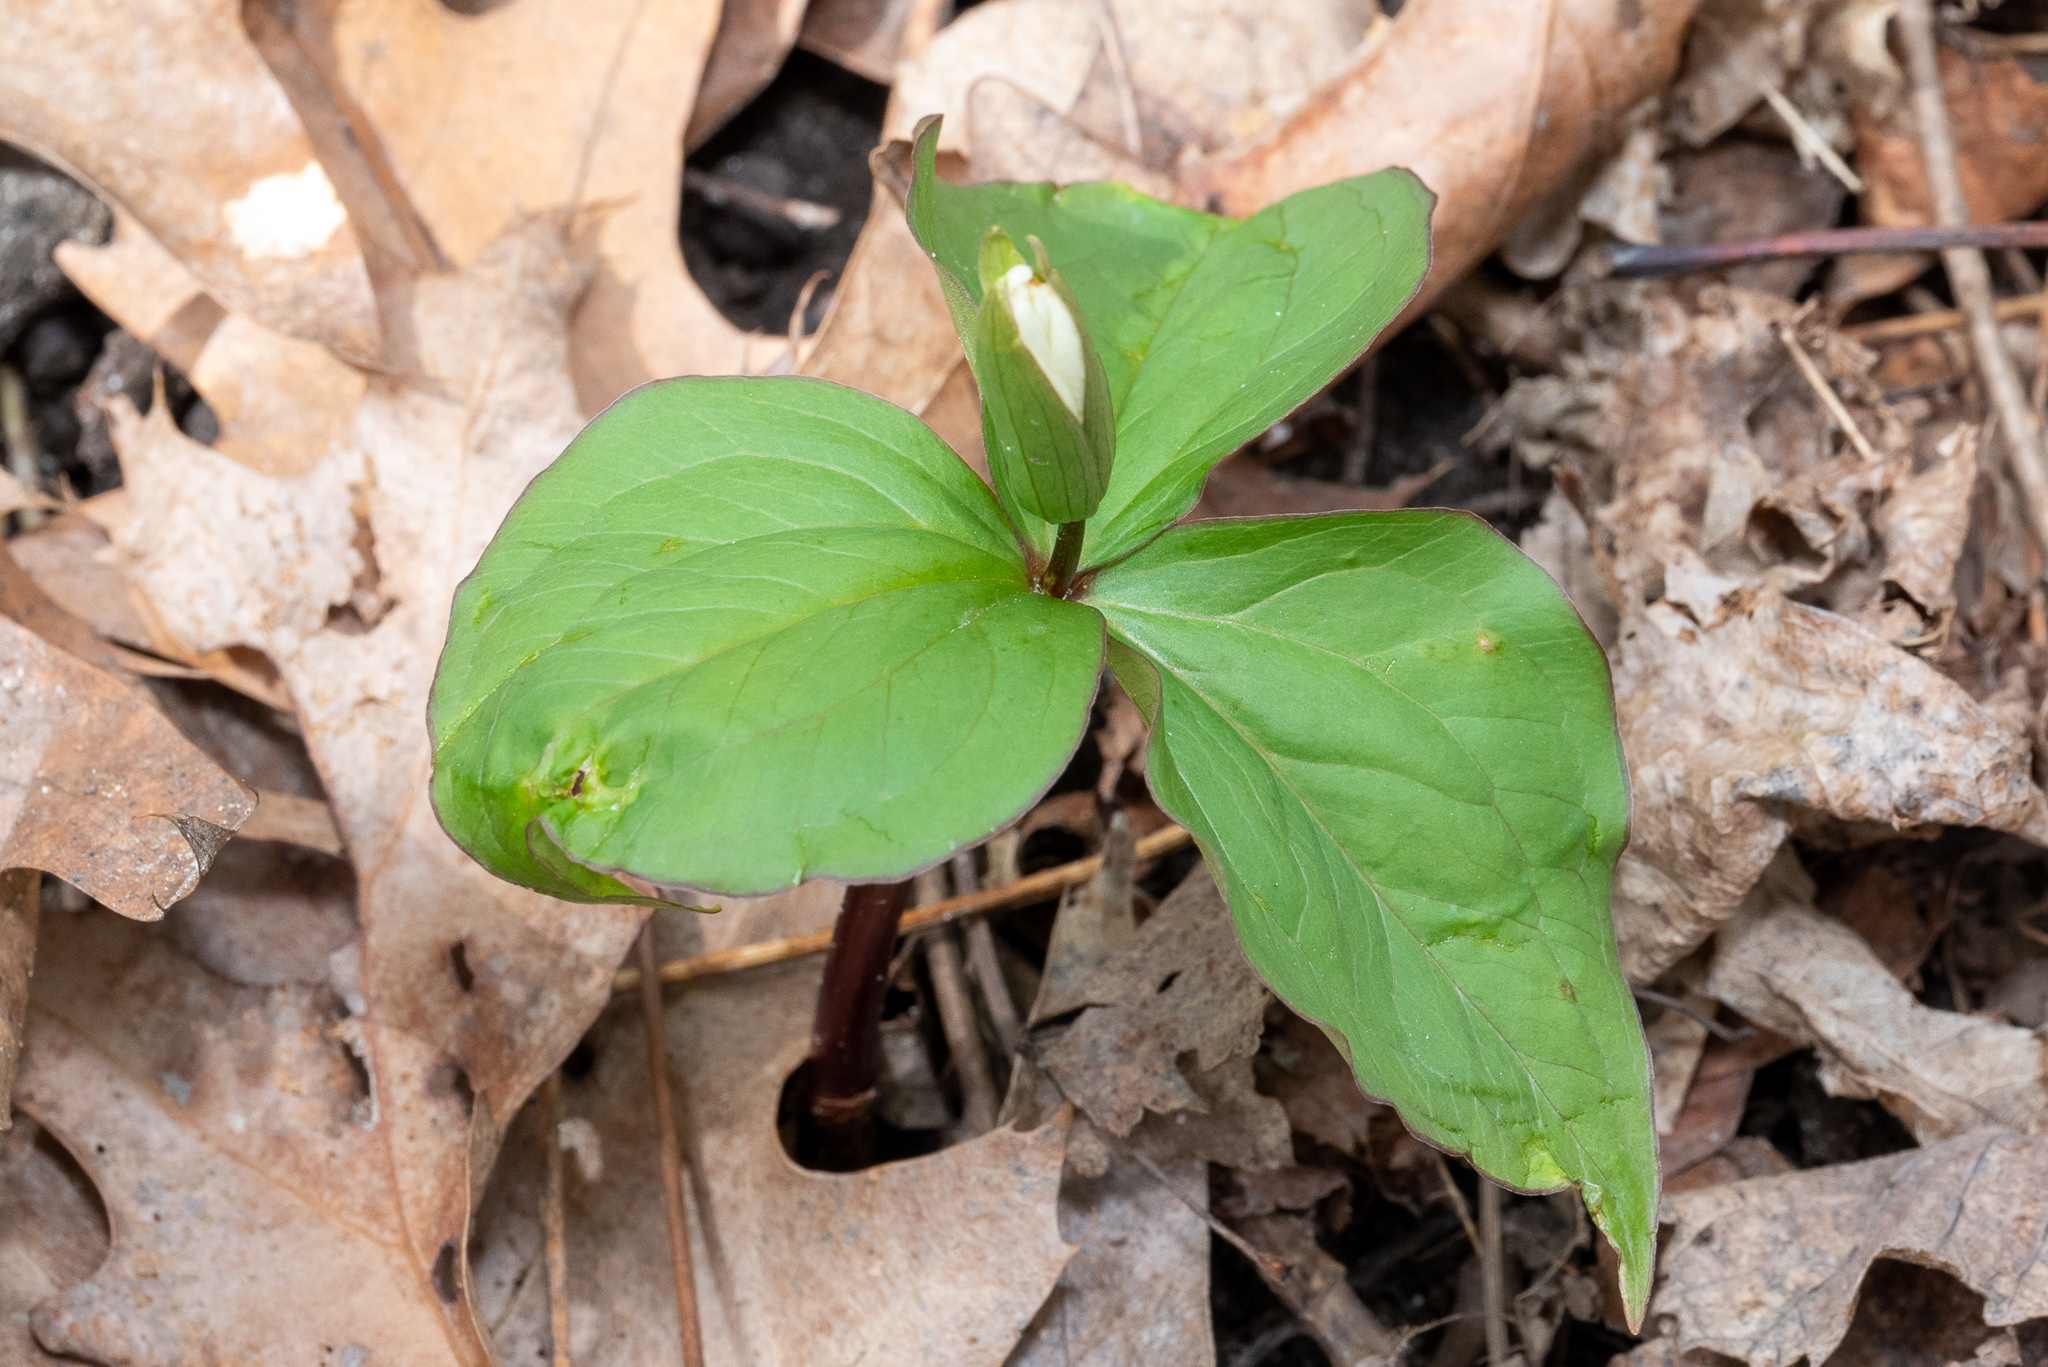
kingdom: Plantae
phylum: Tracheophyta
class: Liliopsida
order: Liliales
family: Melanthiaceae
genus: Trillium
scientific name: Trillium grandiflorum
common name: Great white trillium
